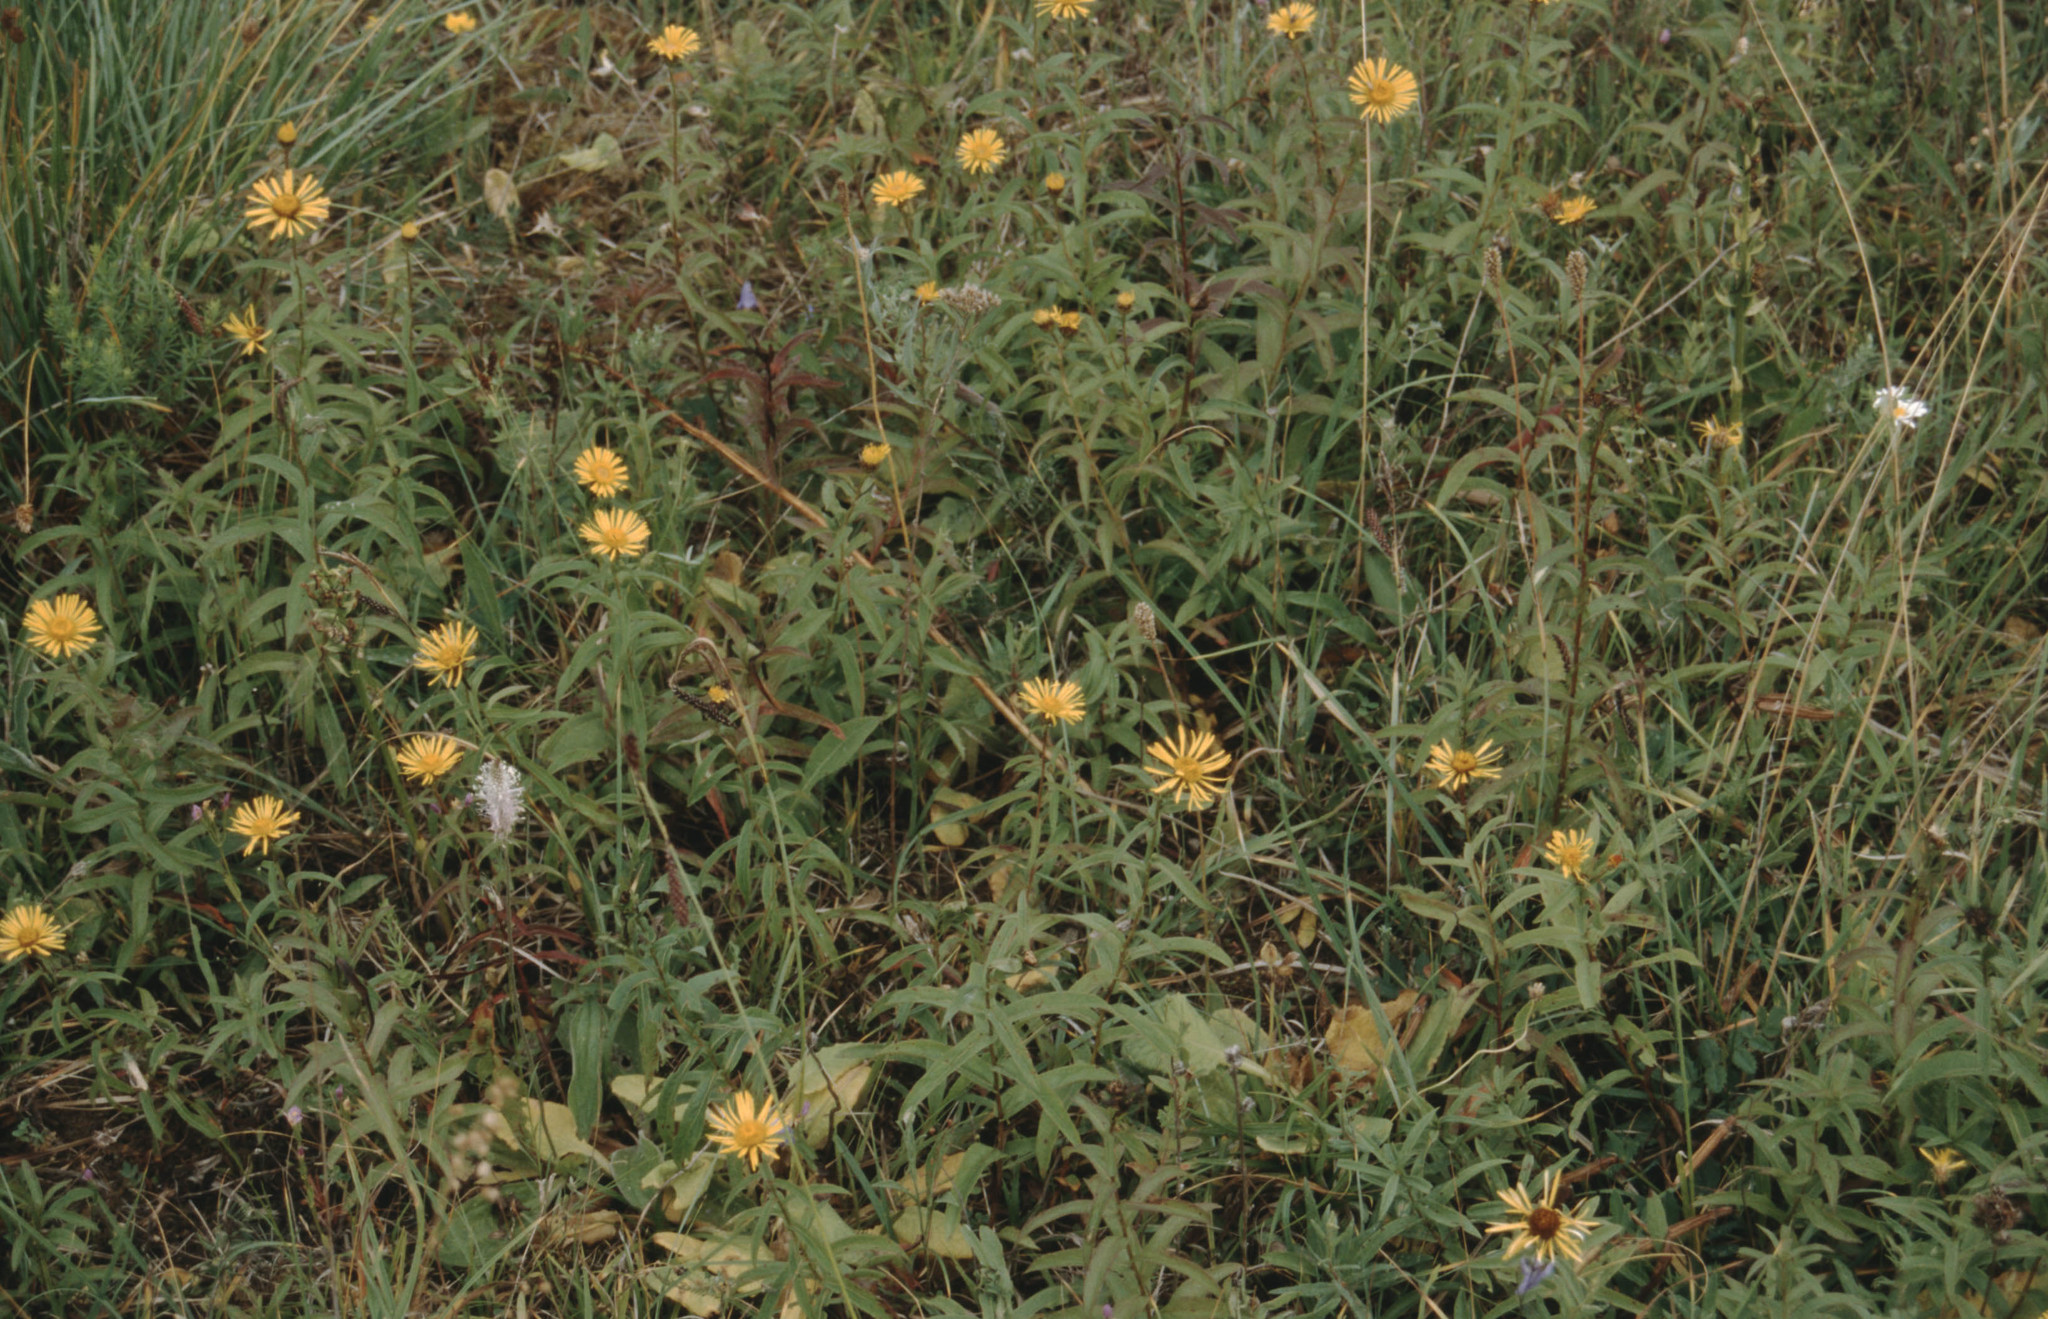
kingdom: Plantae
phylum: Tracheophyta
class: Magnoliopsida
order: Asterales
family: Asteraceae
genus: Pentanema
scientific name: Pentanema salicinum
